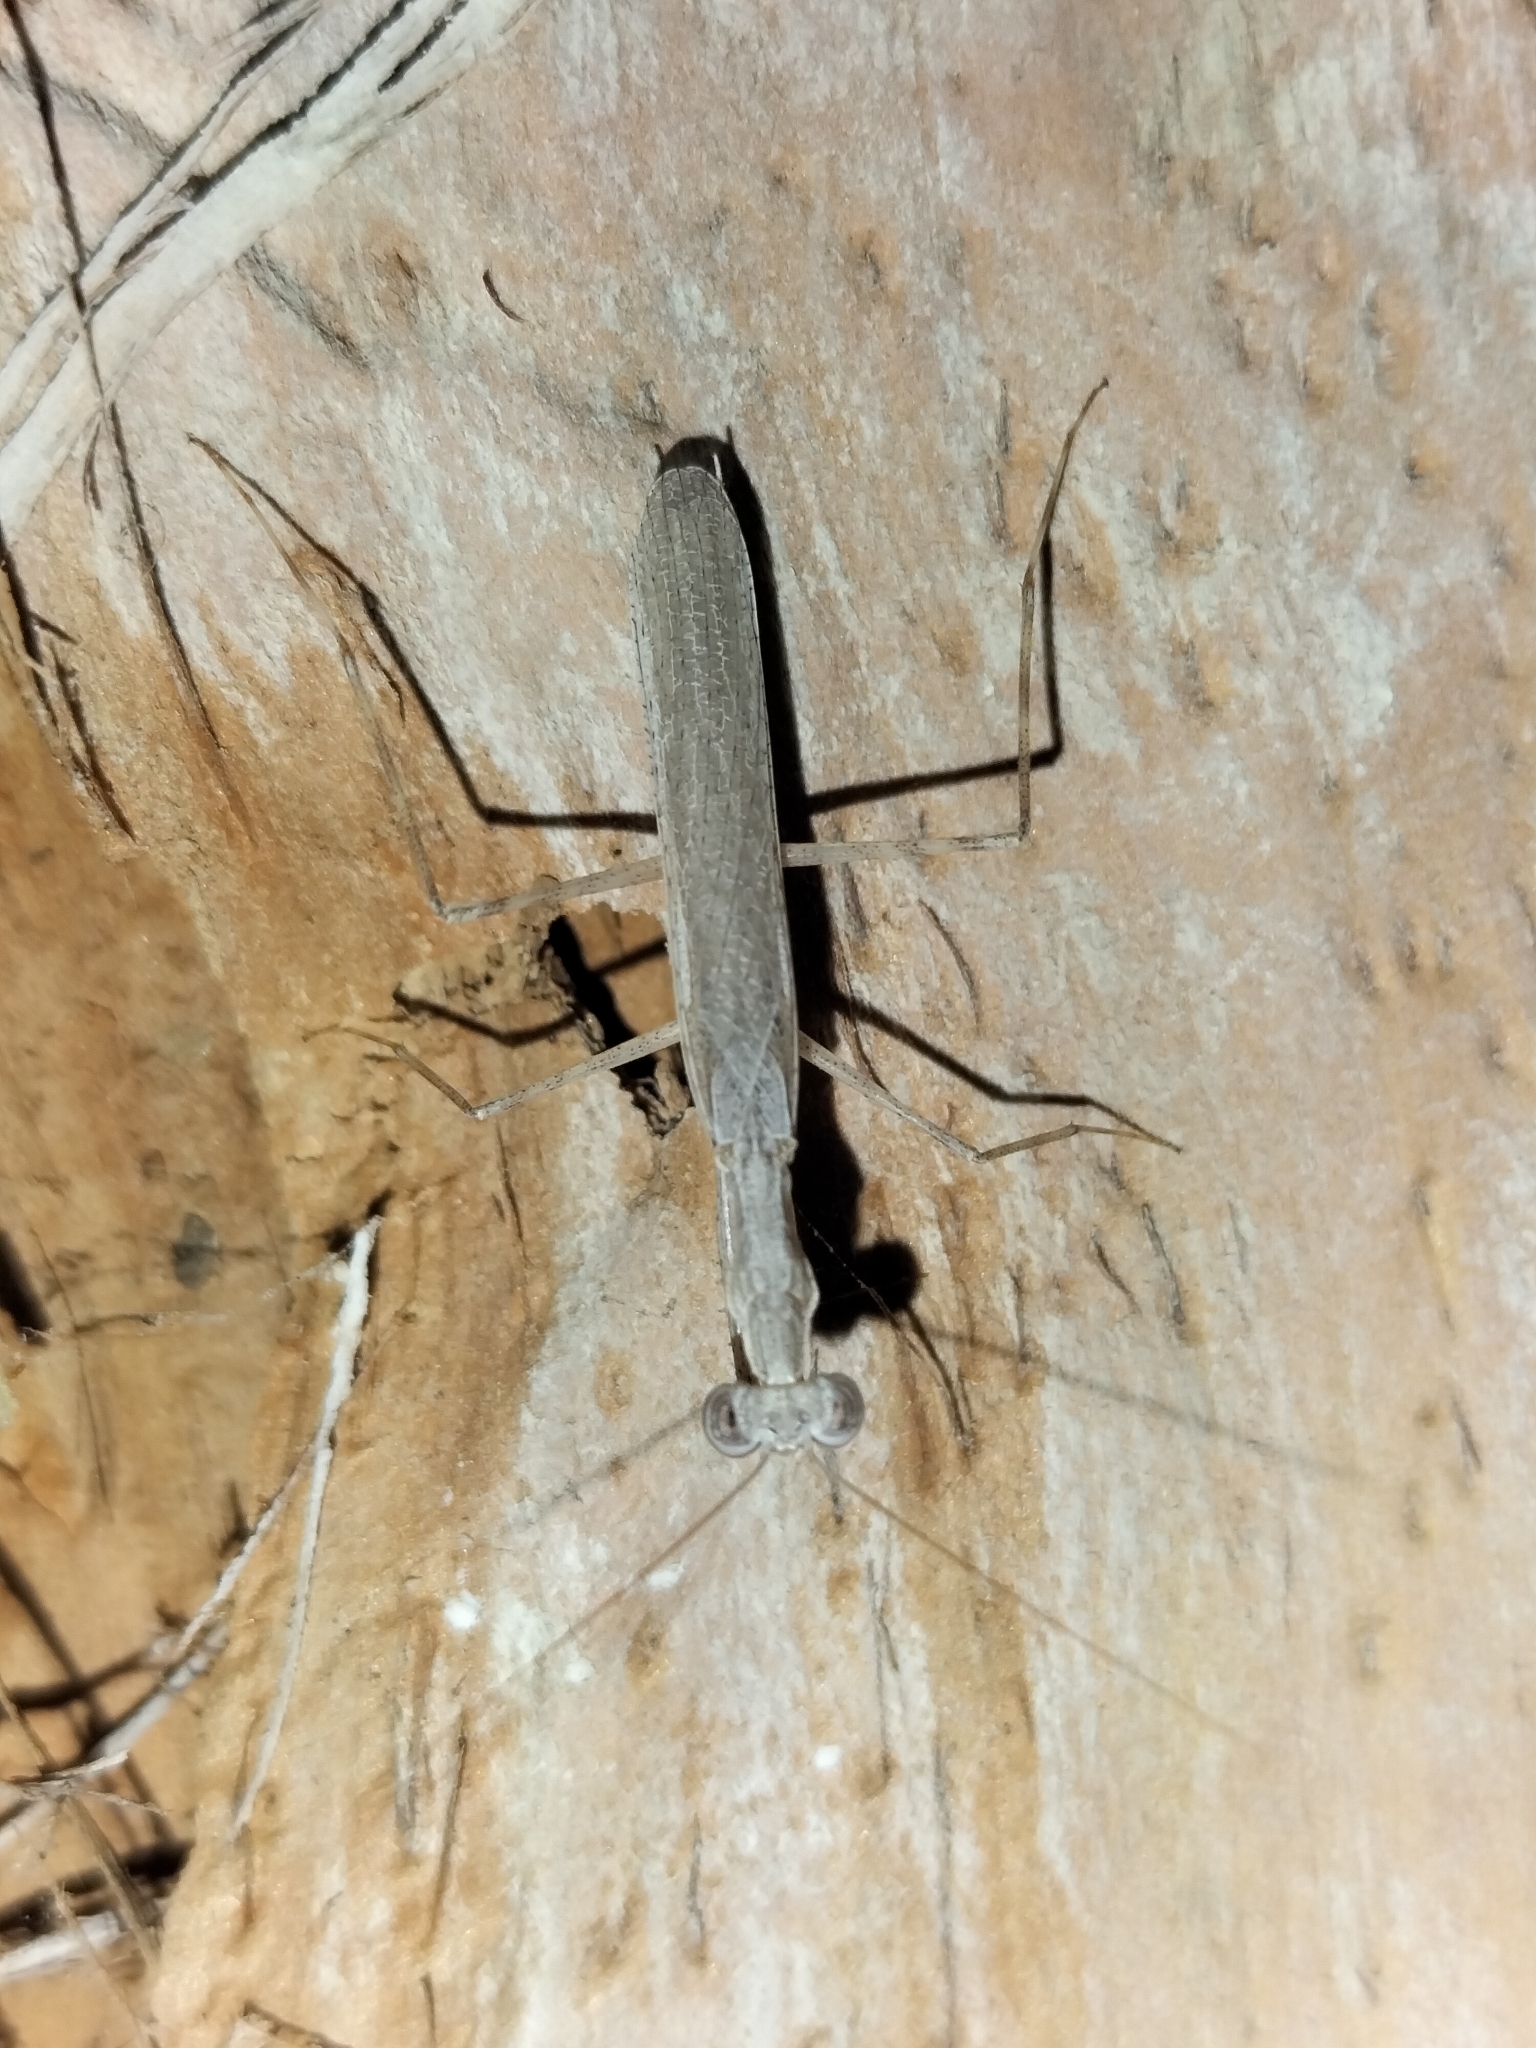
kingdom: Animalia
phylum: Arthropoda
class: Insecta
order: Mantodea
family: Nanomantidae
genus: Ima
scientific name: Ima fusca
